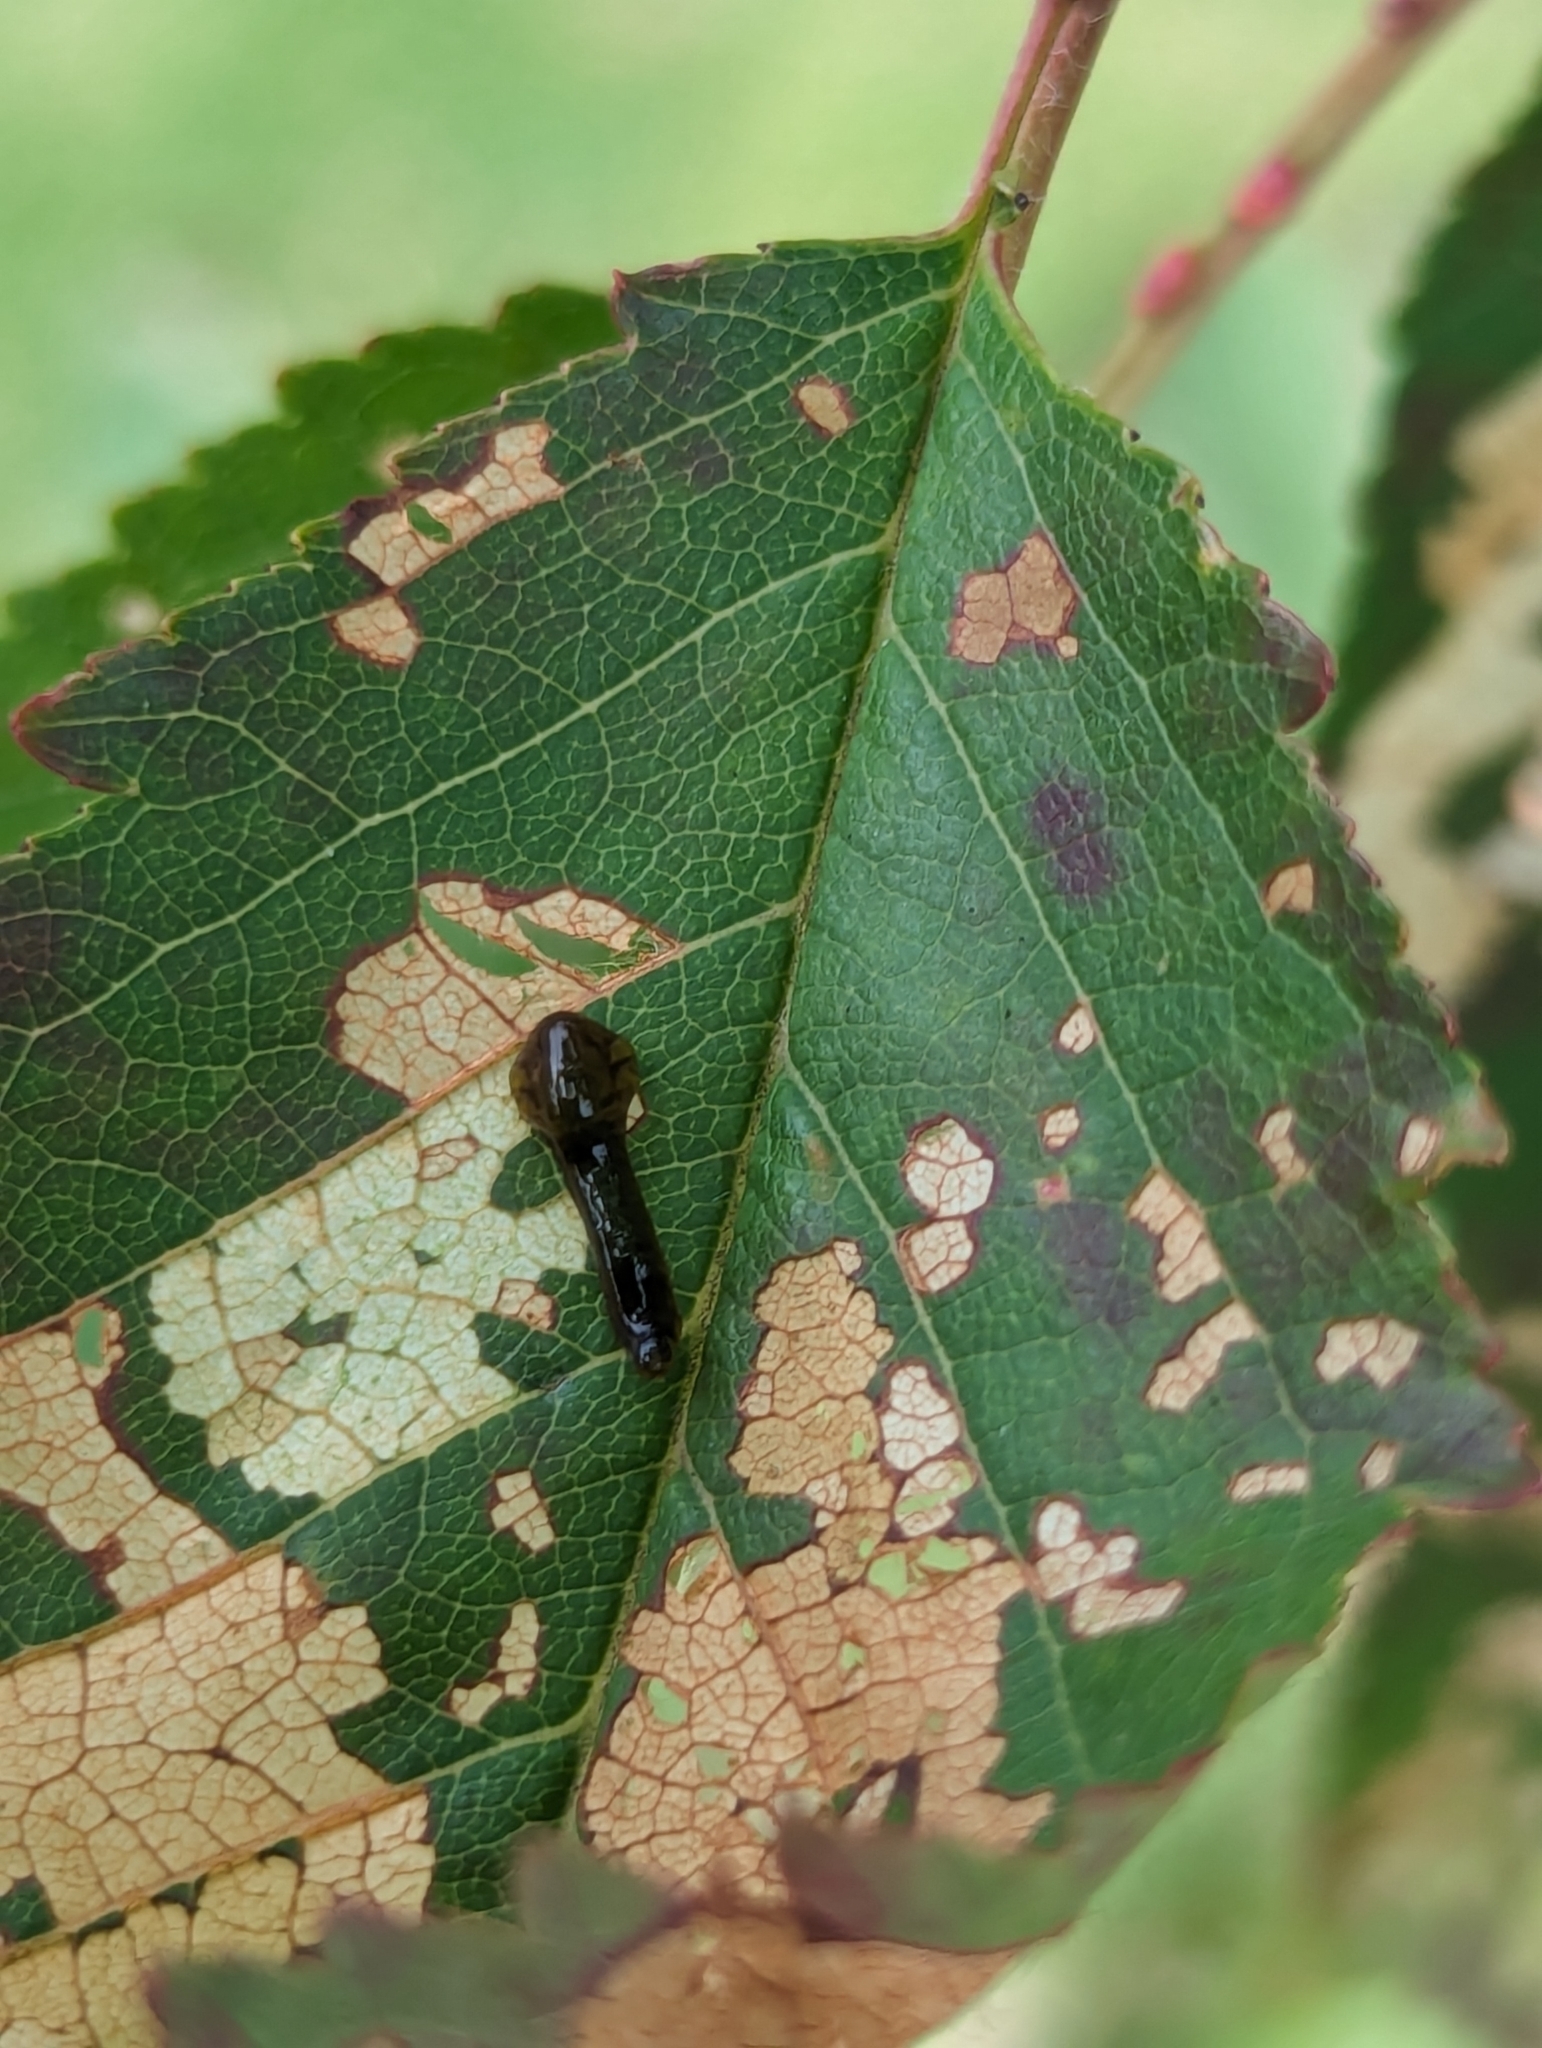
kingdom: Animalia
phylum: Arthropoda
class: Insecta
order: Hymenoptera
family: Tenthredinidae
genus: Caliroa
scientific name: Caliroa cerasi
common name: Pear sawfly
